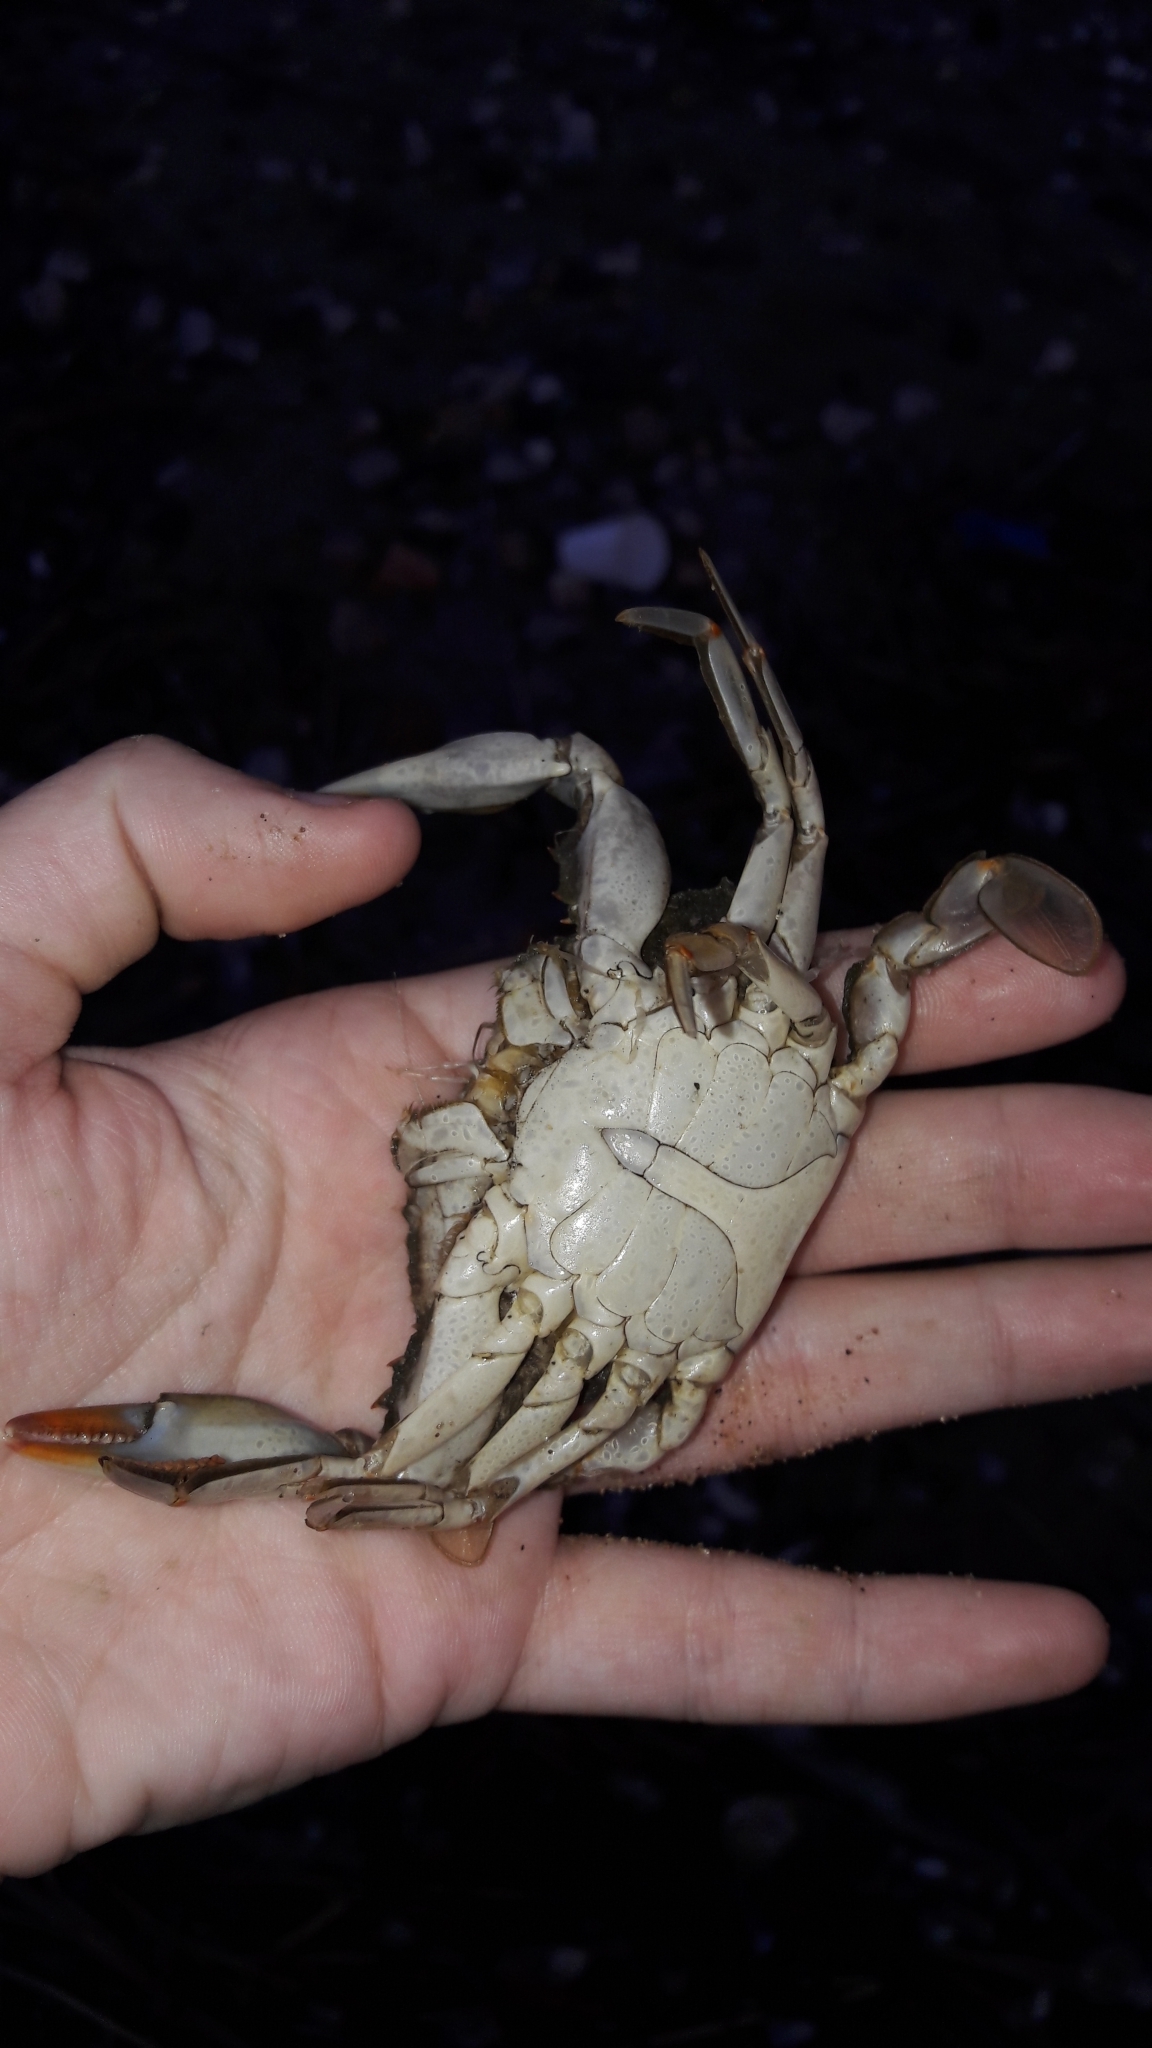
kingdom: Animalia
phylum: Arthropoda
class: Malacostraca
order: Decapoda
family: Portunidae
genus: Callinectes
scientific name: Callinectes sapidus
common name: Blue crab
